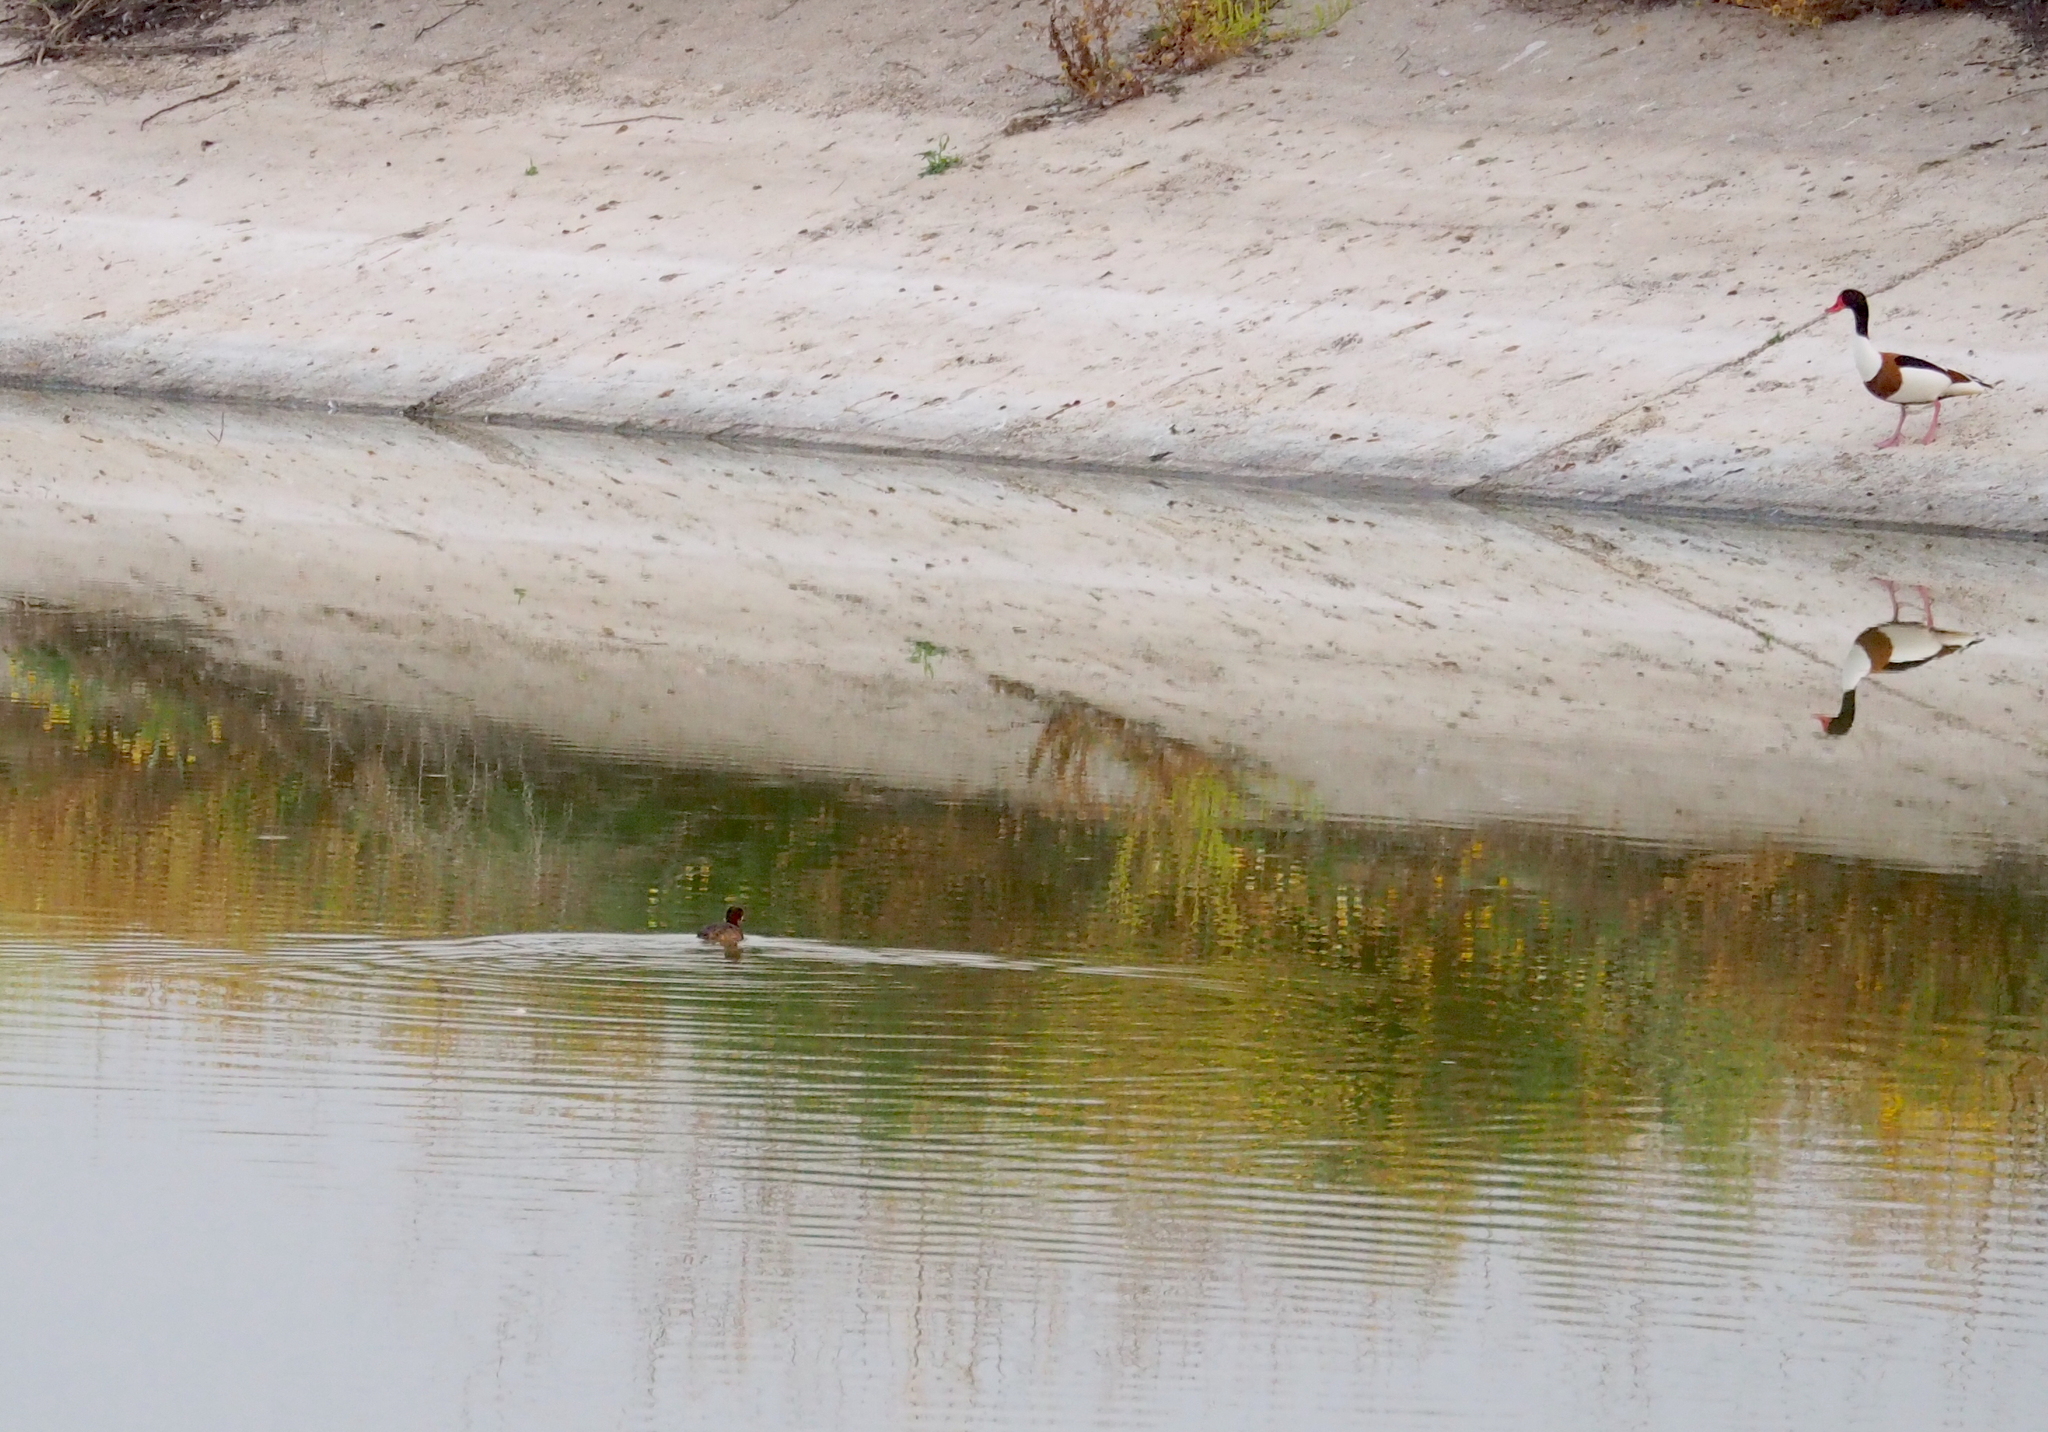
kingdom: Animalia
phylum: Chordata
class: Aves
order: Podicipediformes
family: Podicipedidae
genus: Tachybaptus
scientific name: Tachybaptus ruficollis
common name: Little grebe
